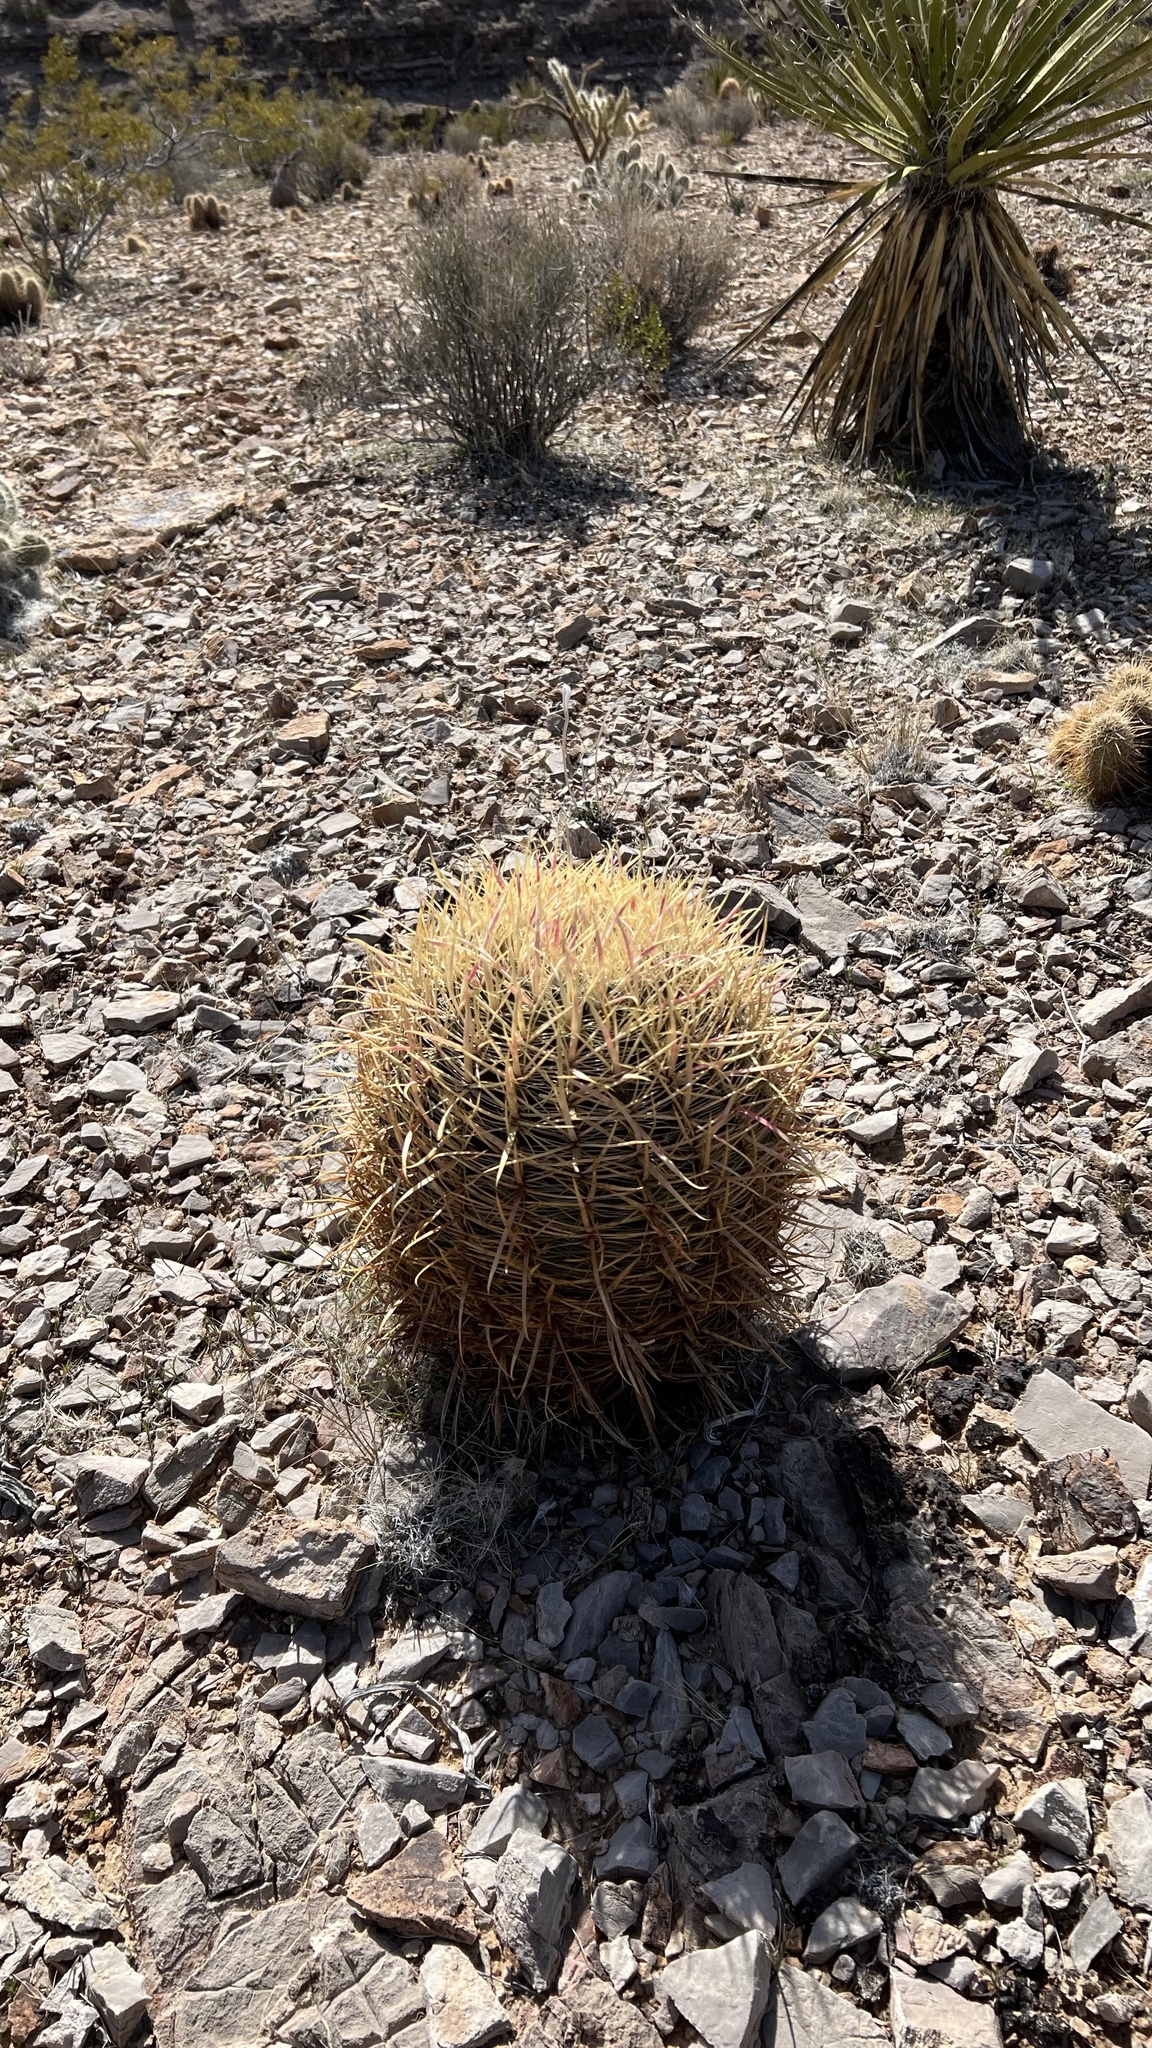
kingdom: Plantae
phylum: Tracheophyta
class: Magnoliopsida
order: Caryophyllales
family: Cactaceae
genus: Ferocactus
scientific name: Ferocactus cylindraceus
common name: California barrel cactus
